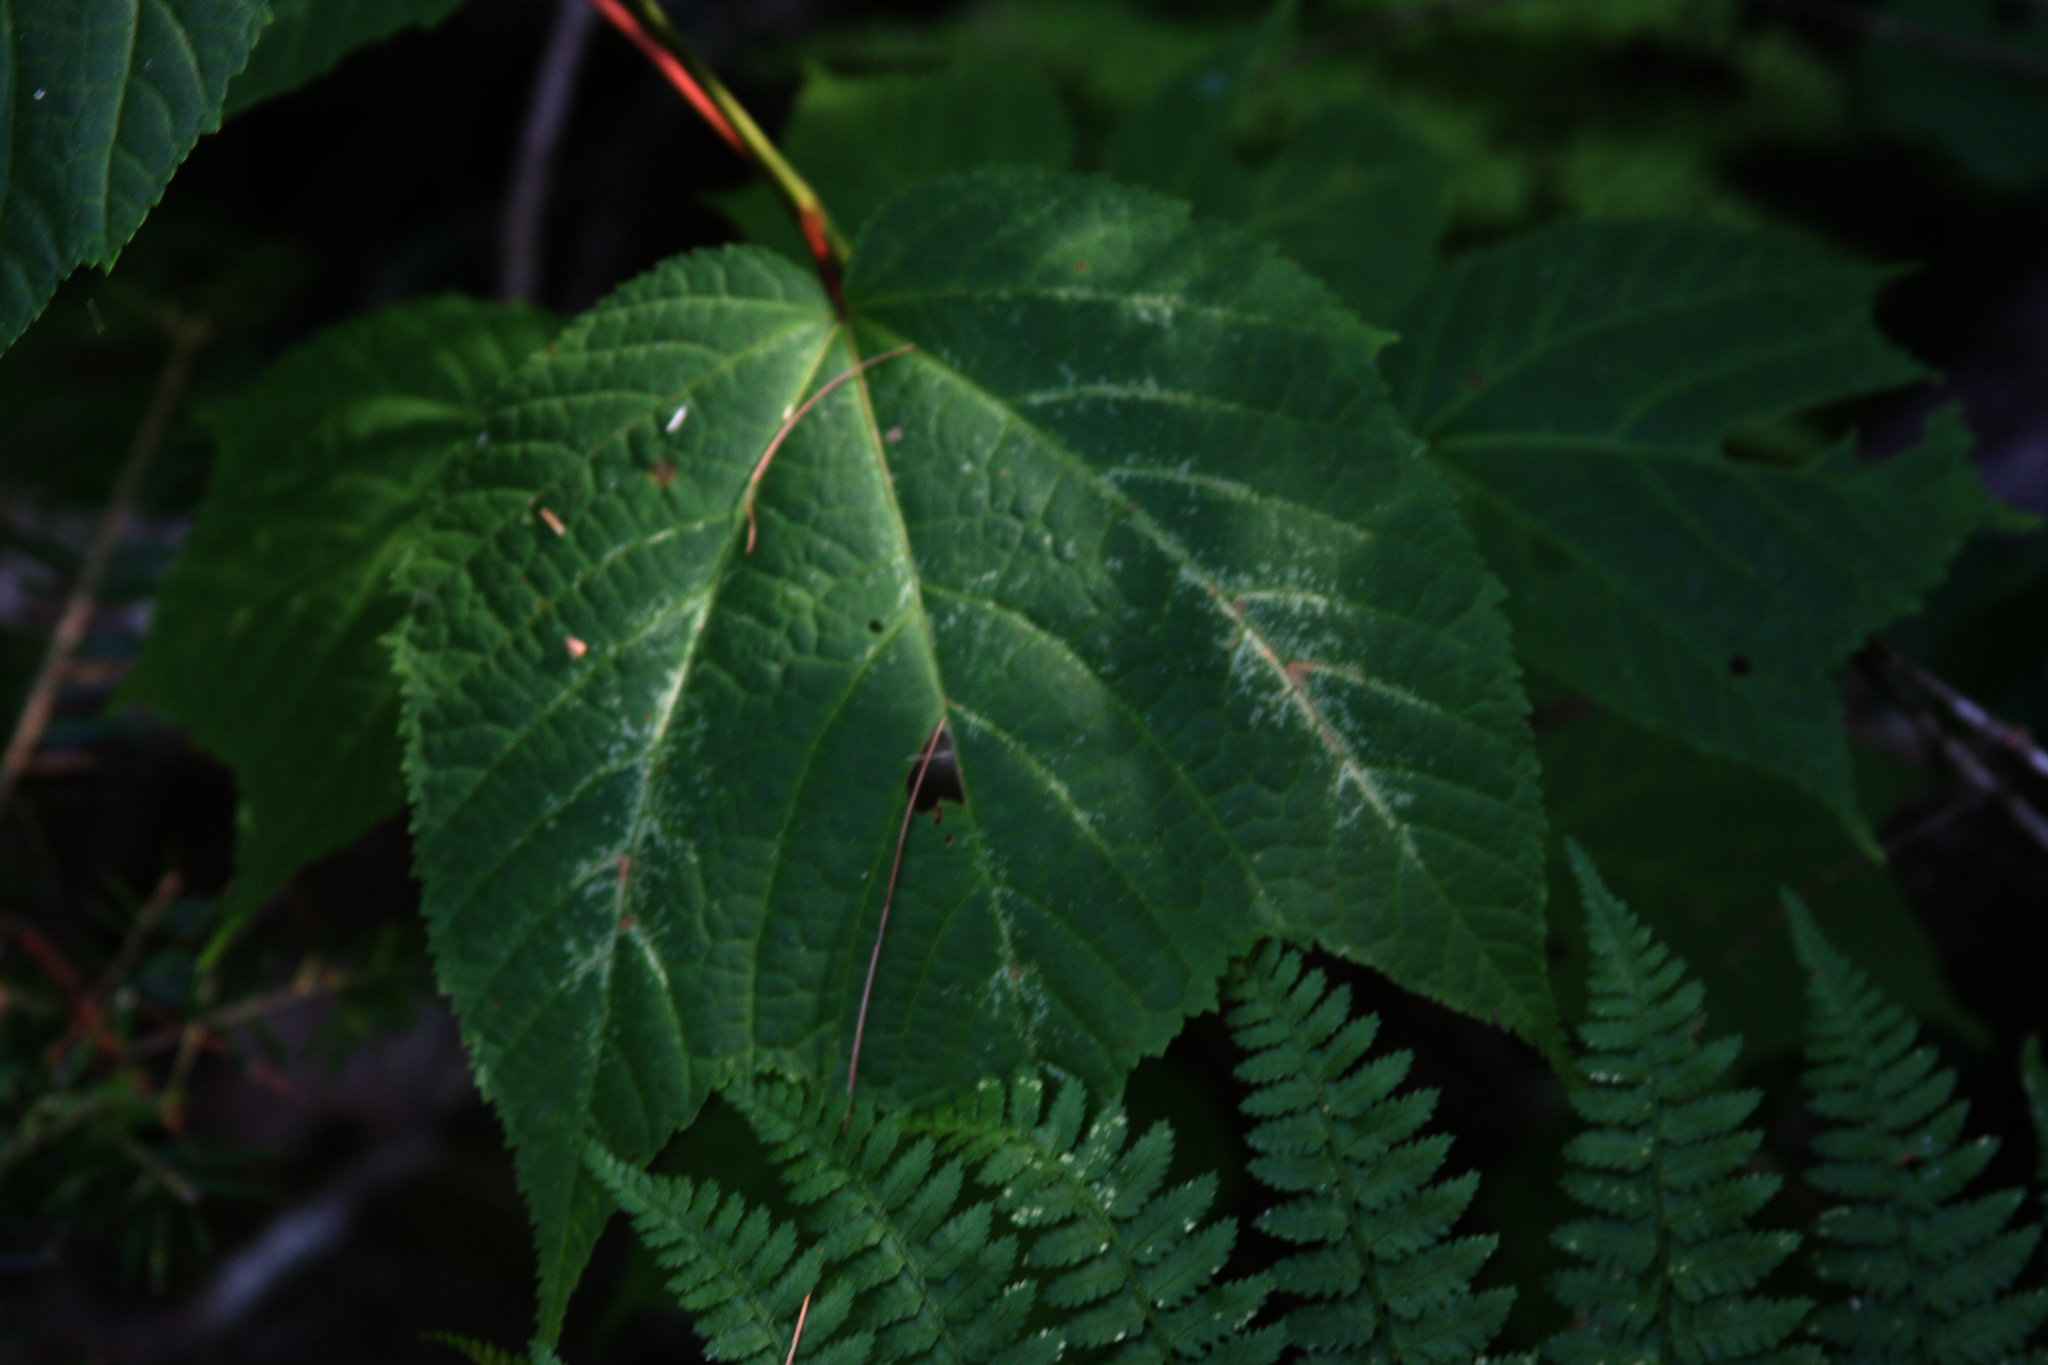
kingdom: Plantae
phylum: Tracheophyta
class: Magnoliopsida
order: Sapindales
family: Sapindaceae
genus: Acer
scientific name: Acer pensylvanicum
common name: Moosewood
